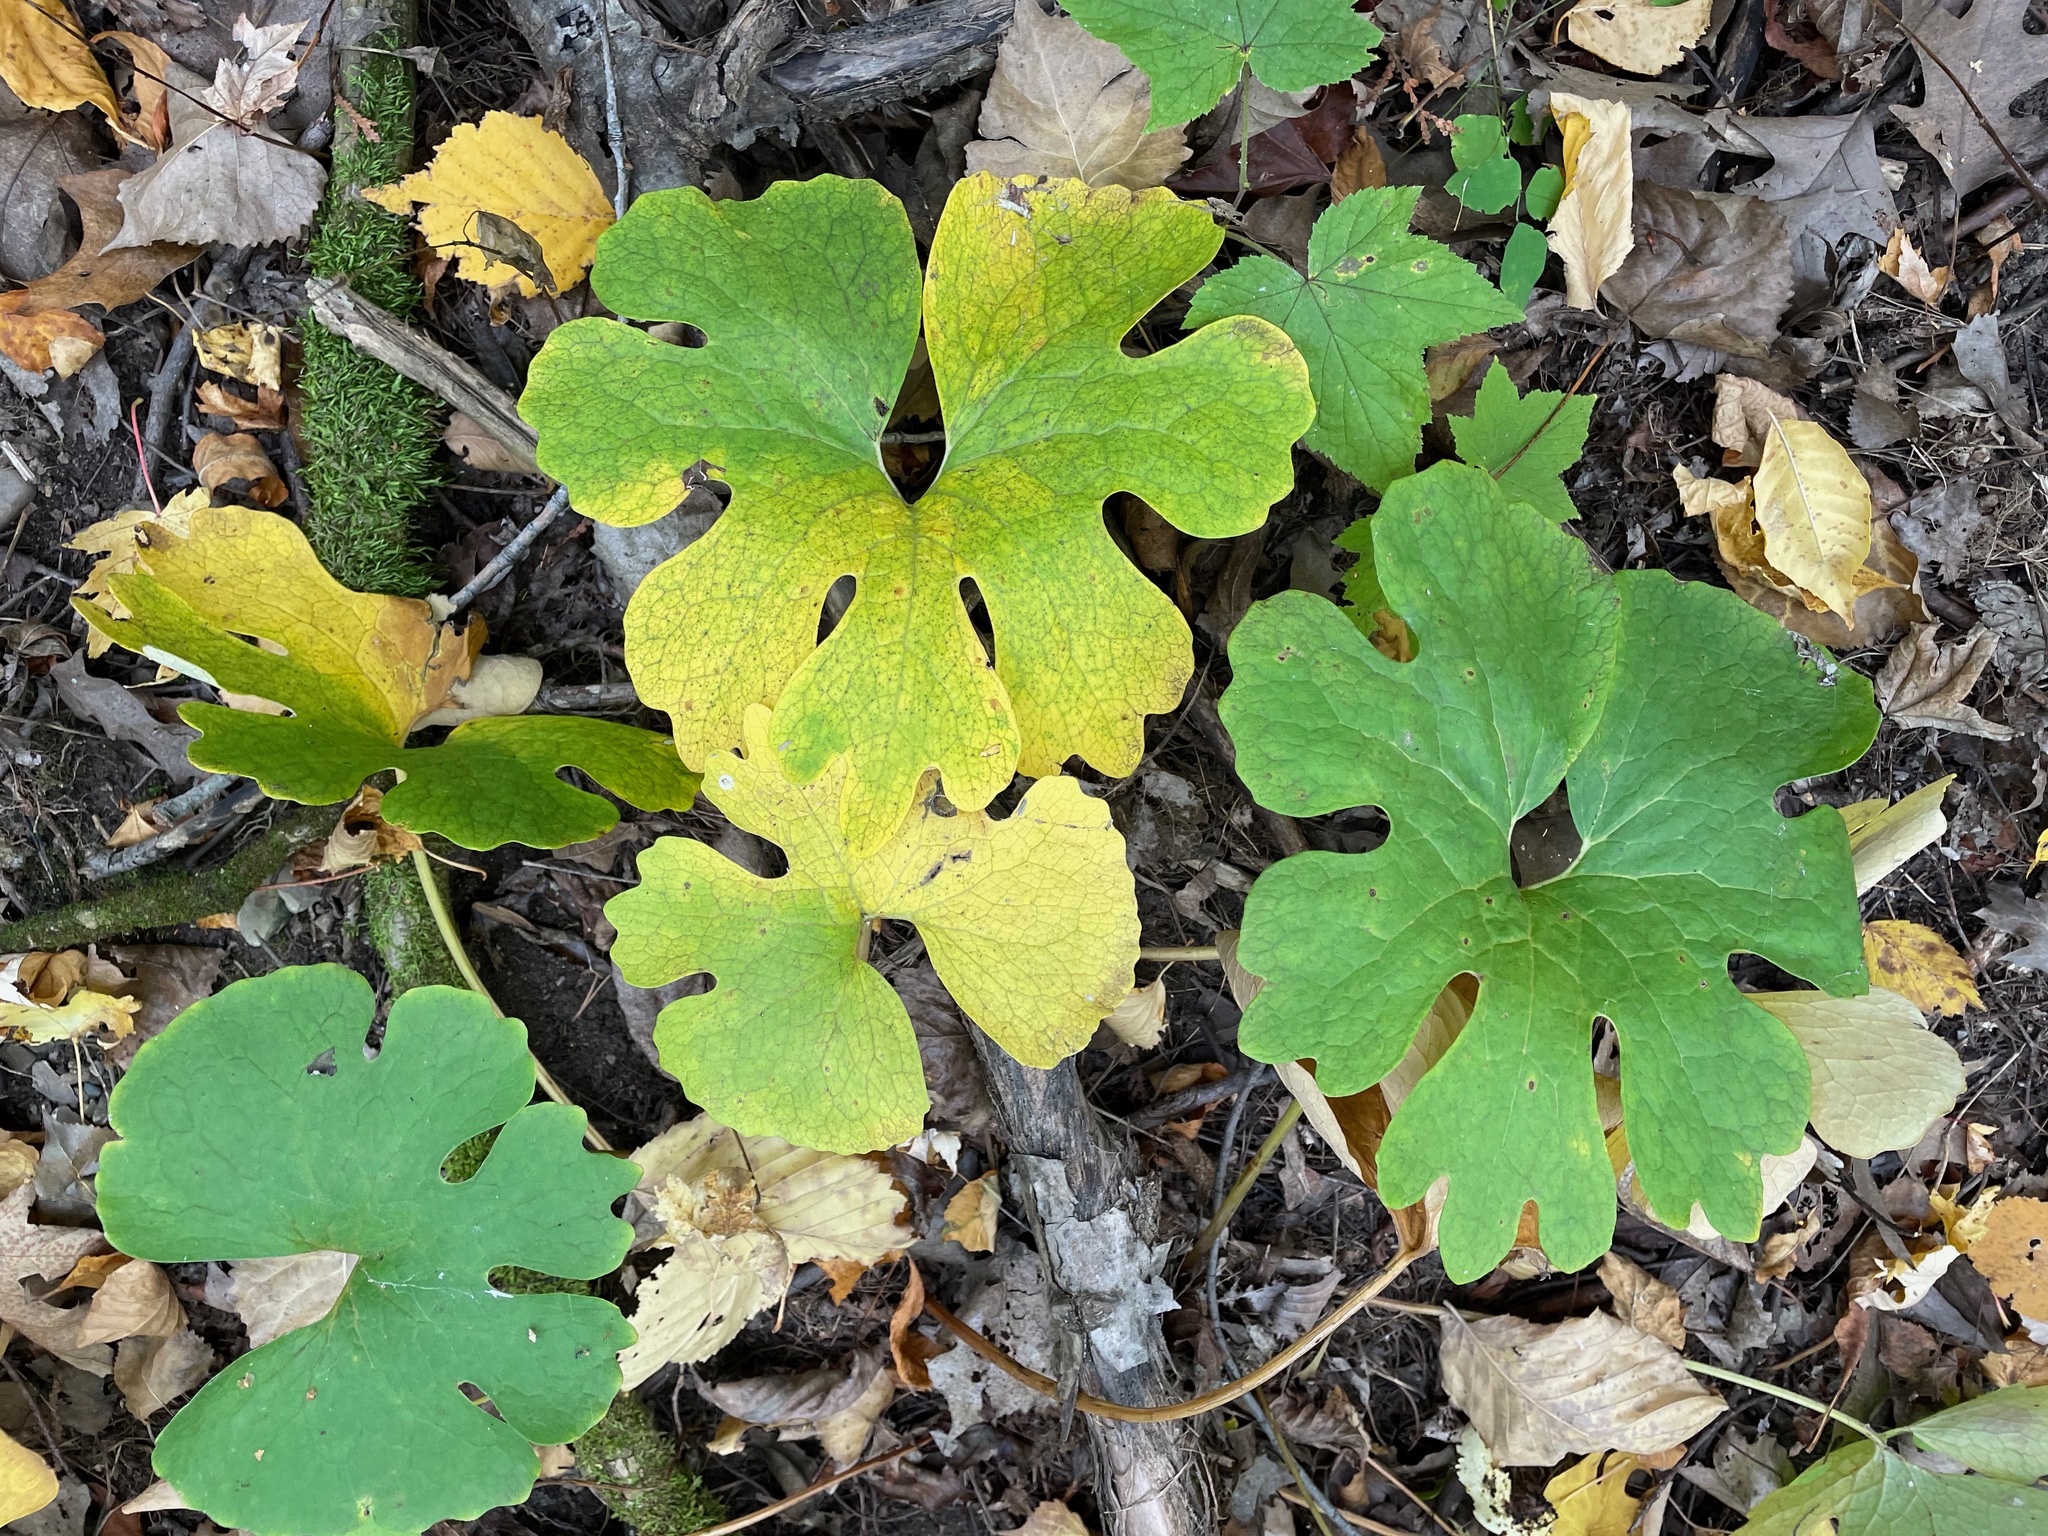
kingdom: Plantae
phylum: Tracheophyta
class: Magnoliopsida
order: Ranunculales
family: Papaveraceae
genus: Sanguinaria
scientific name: Sanguinaria canadensis
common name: Bloodroot
